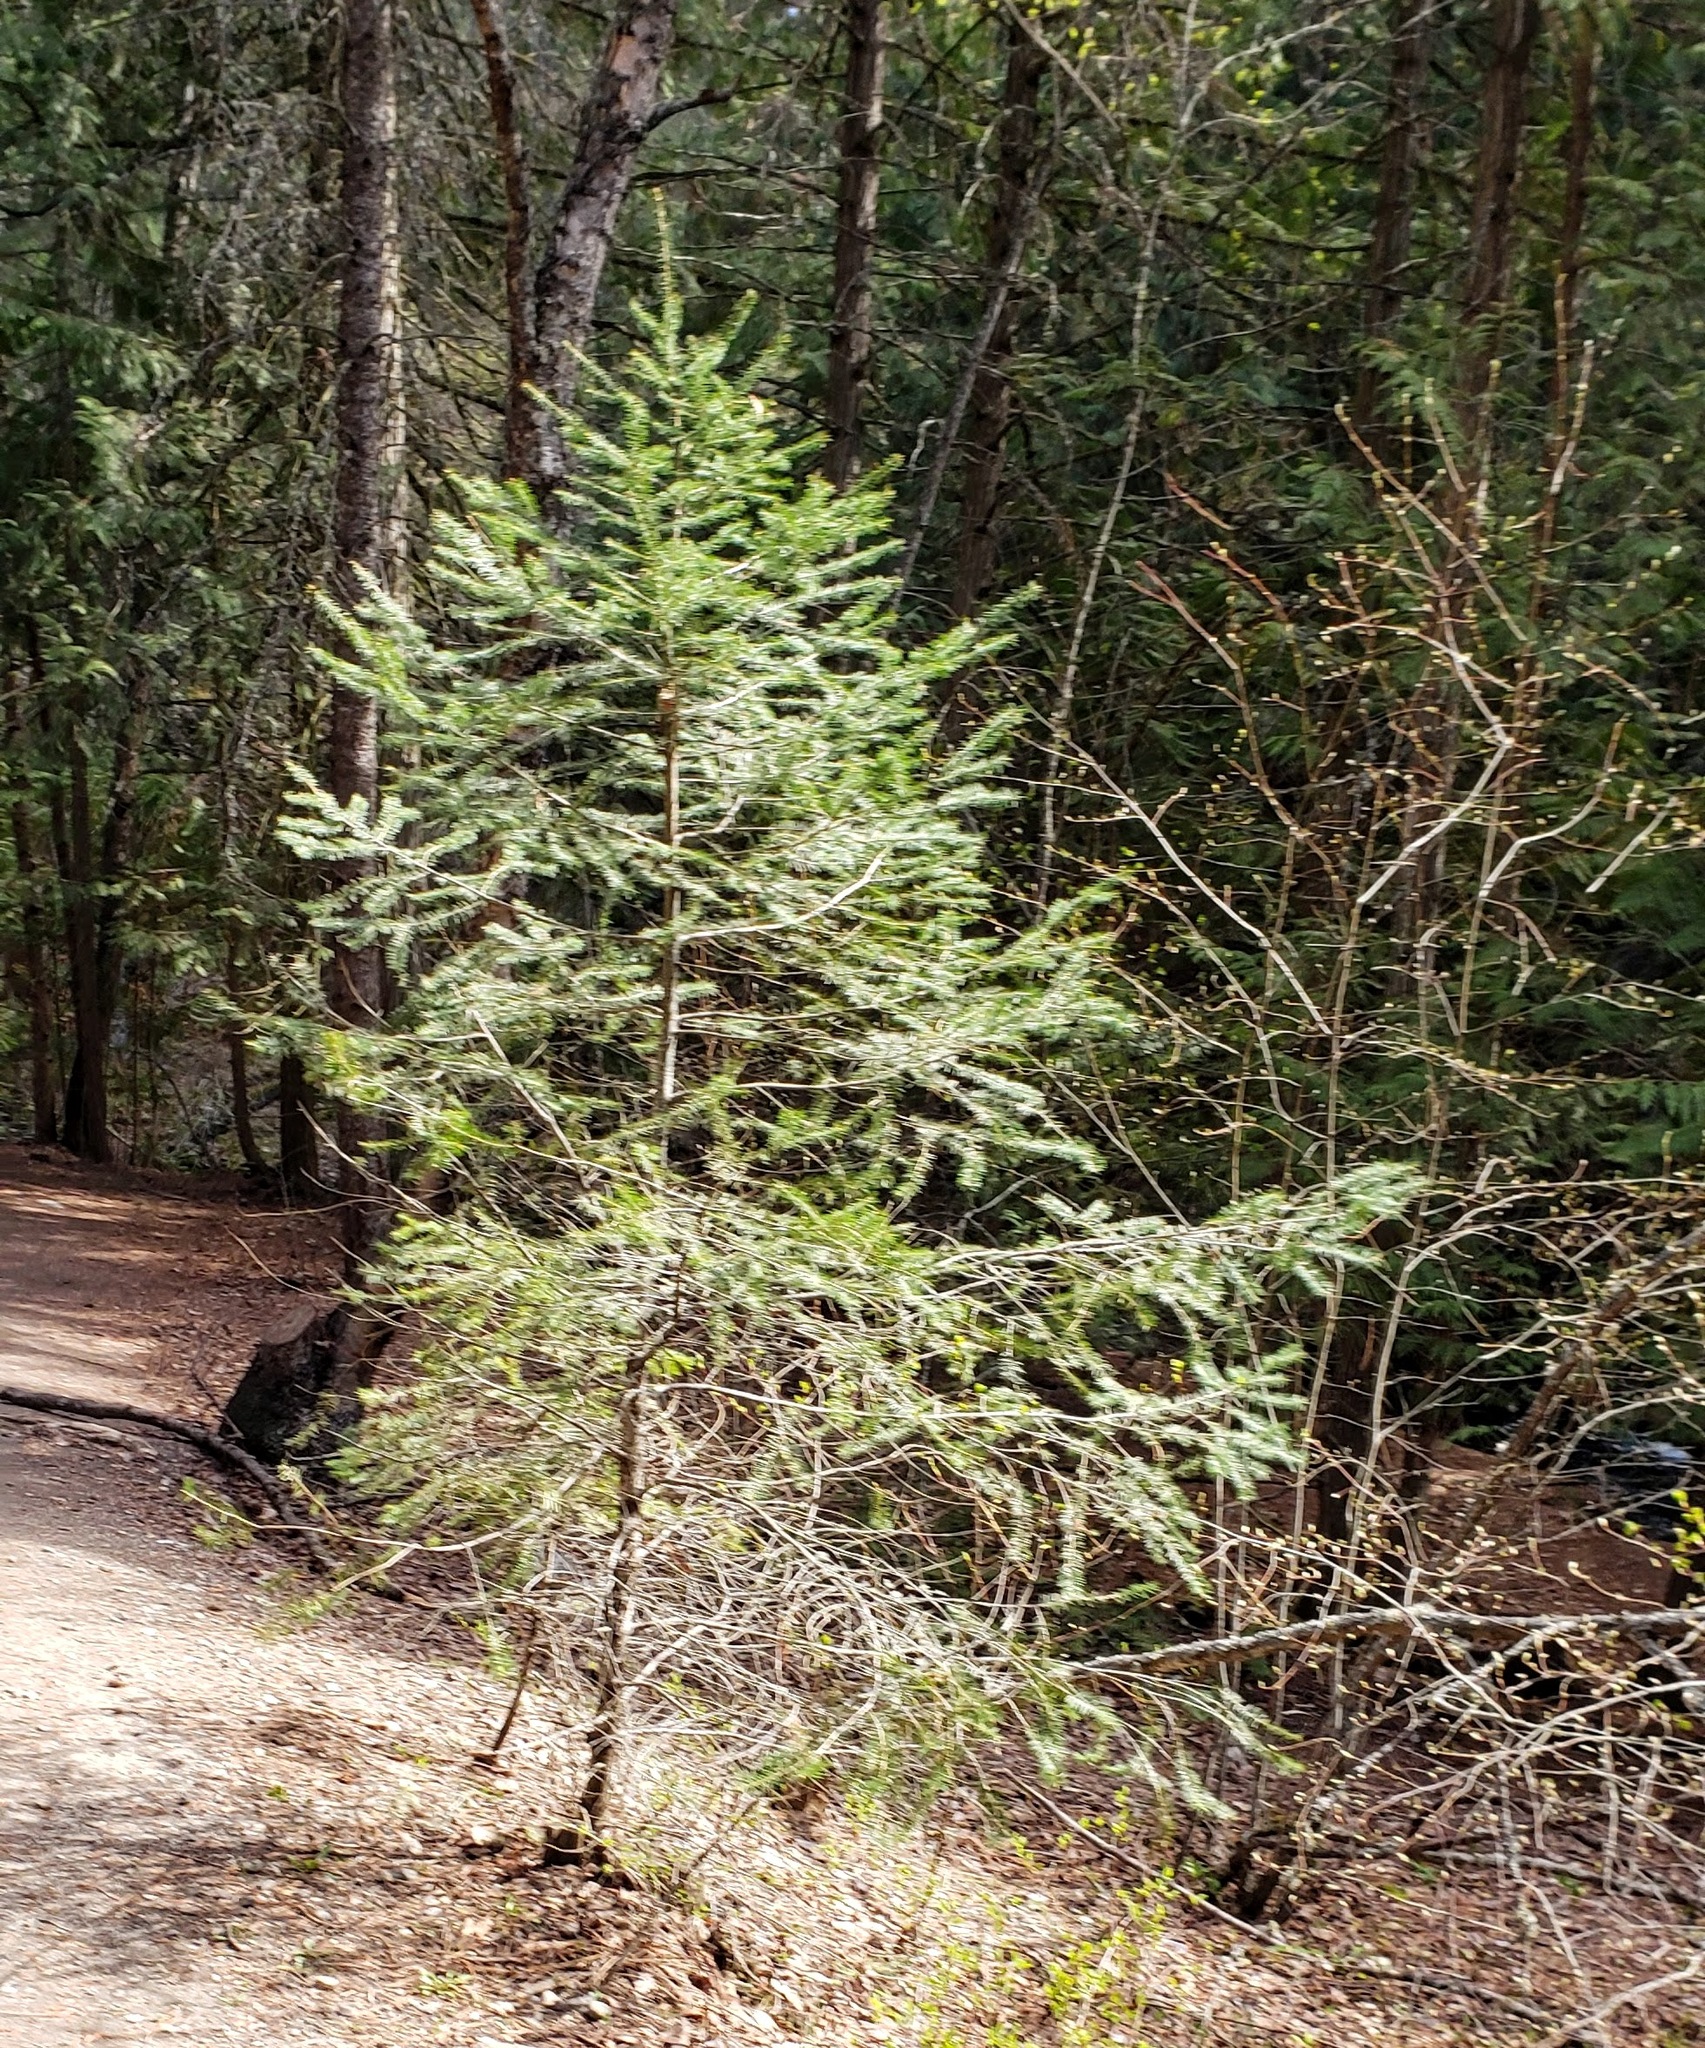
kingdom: Plantae
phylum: Tracheophyta
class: Pinopsida
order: Pinales
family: Pinaceae
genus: Pseudotsuga
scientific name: Pseudotsuga menziesii
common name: Douglas fir
